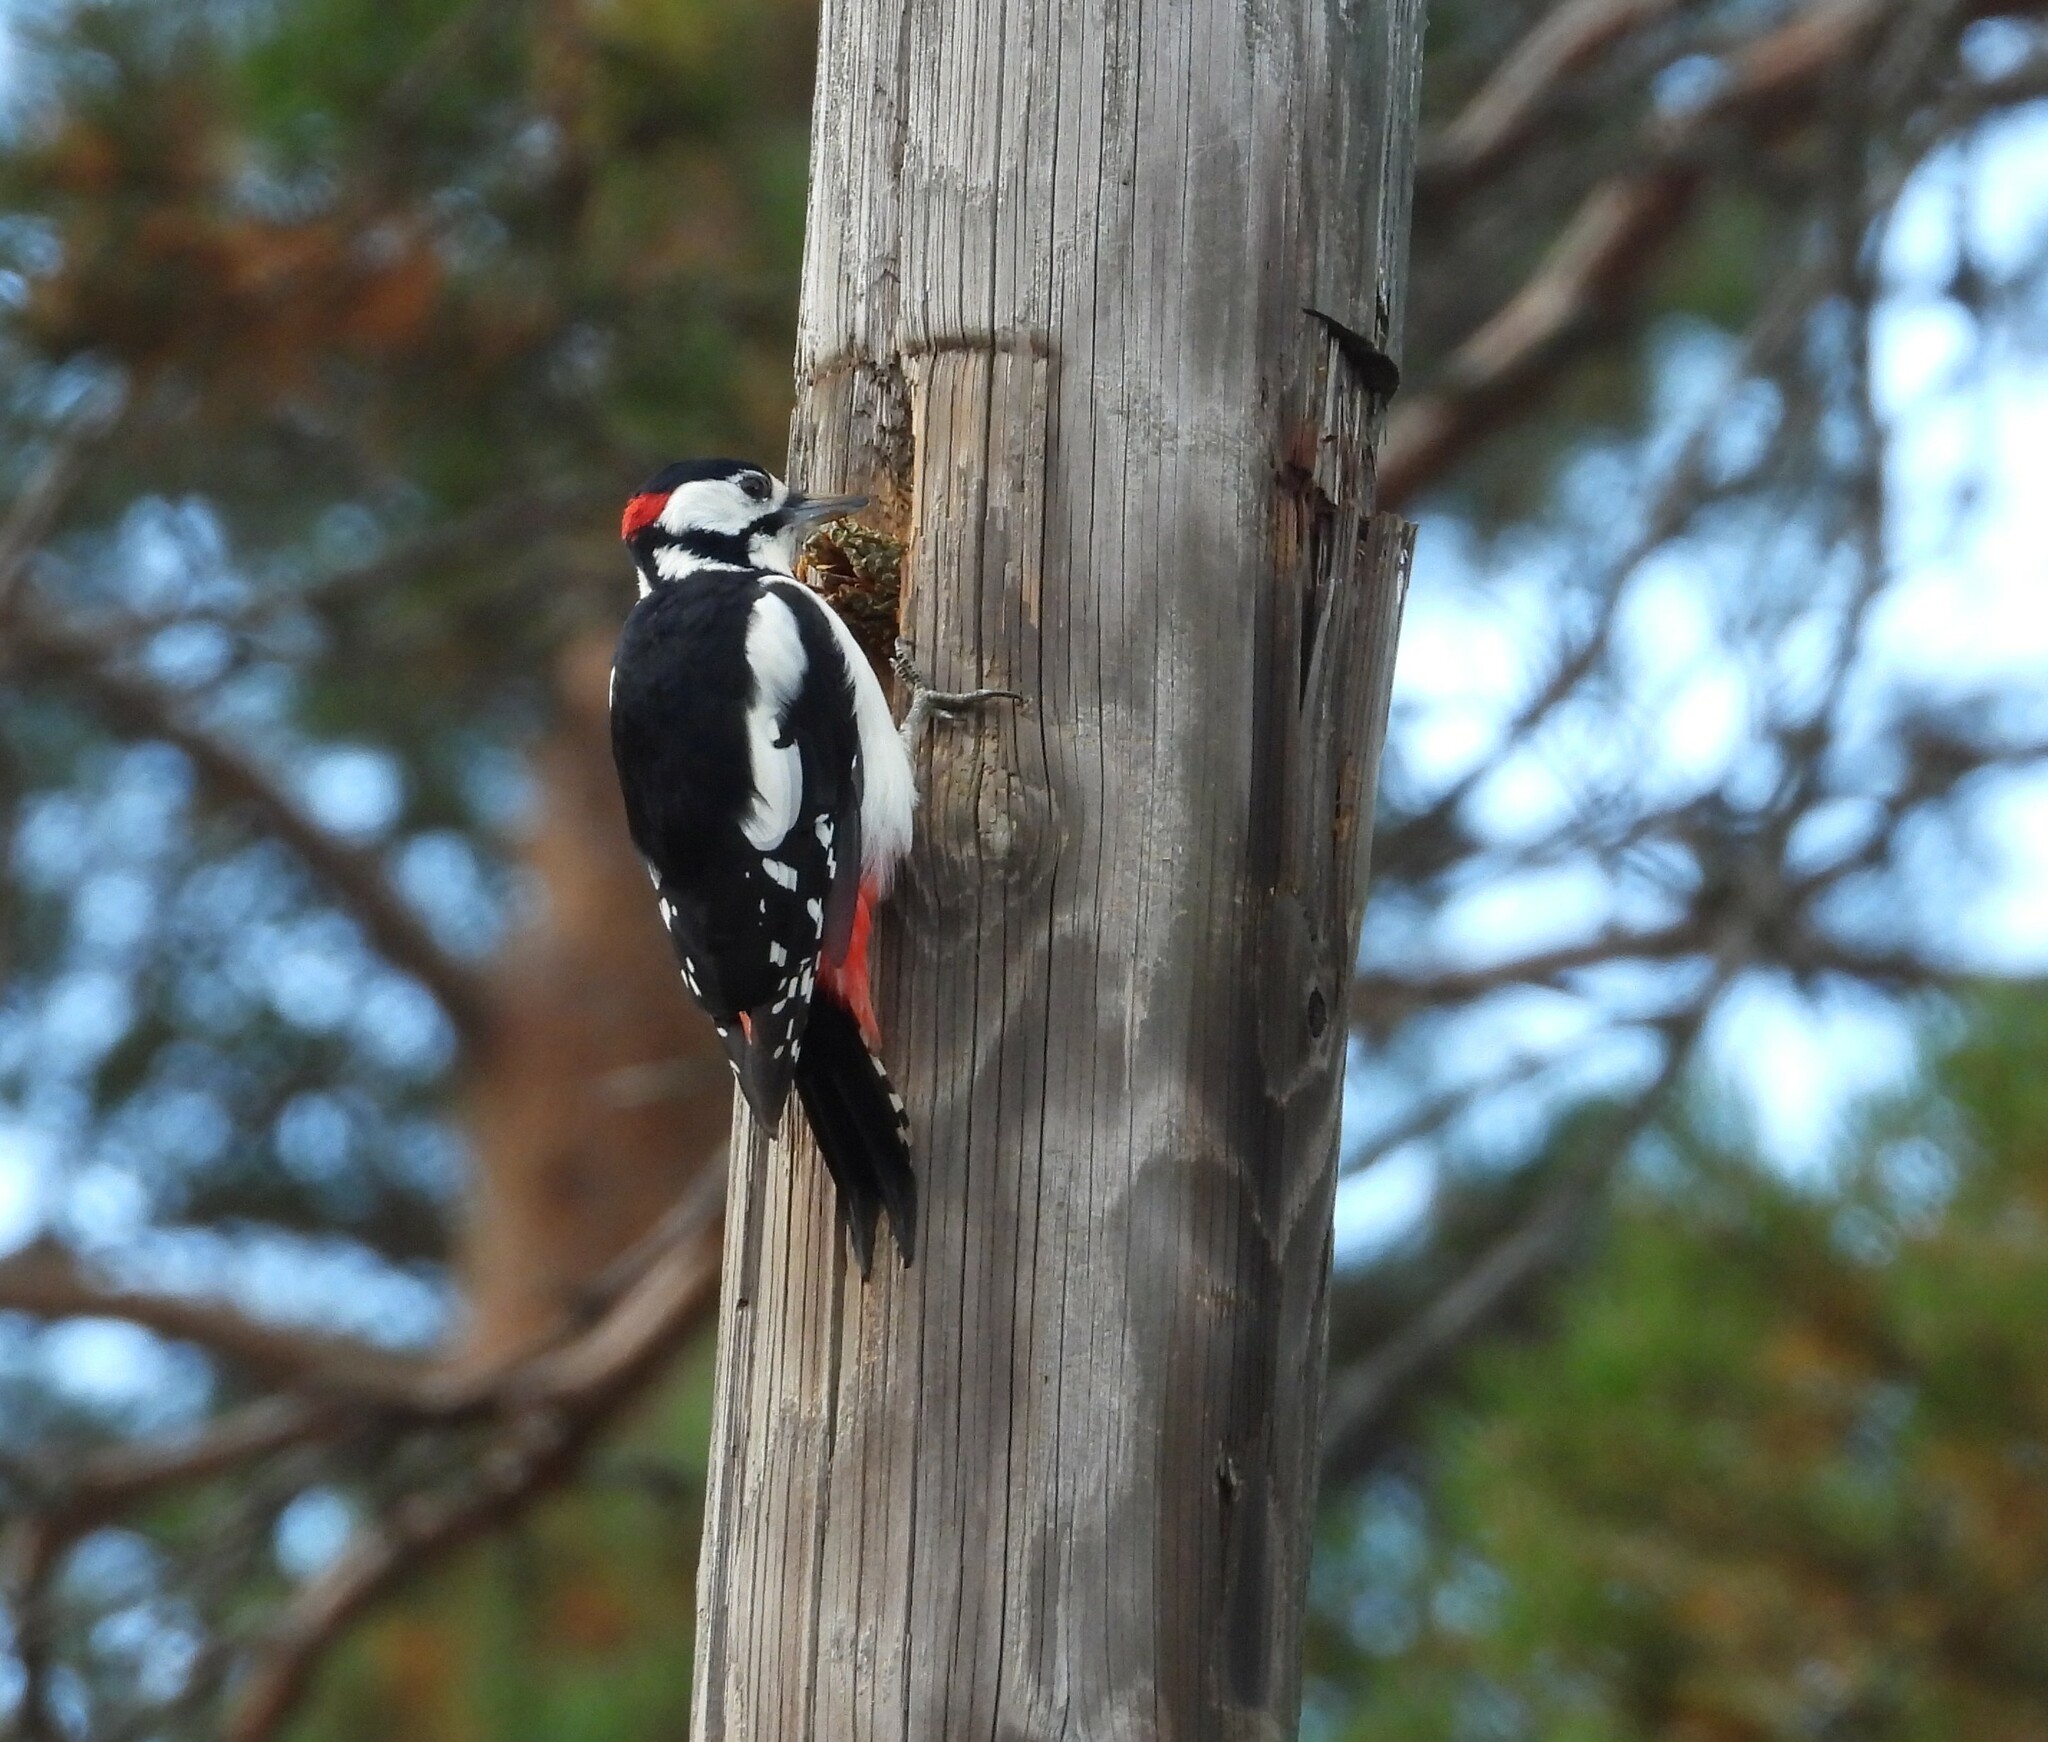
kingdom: Animalia
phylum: Chordata
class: Aves
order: Piciformes
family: Picidae
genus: Dendrocopos
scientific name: Dendrocopos major
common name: Great spotted woodpecker
